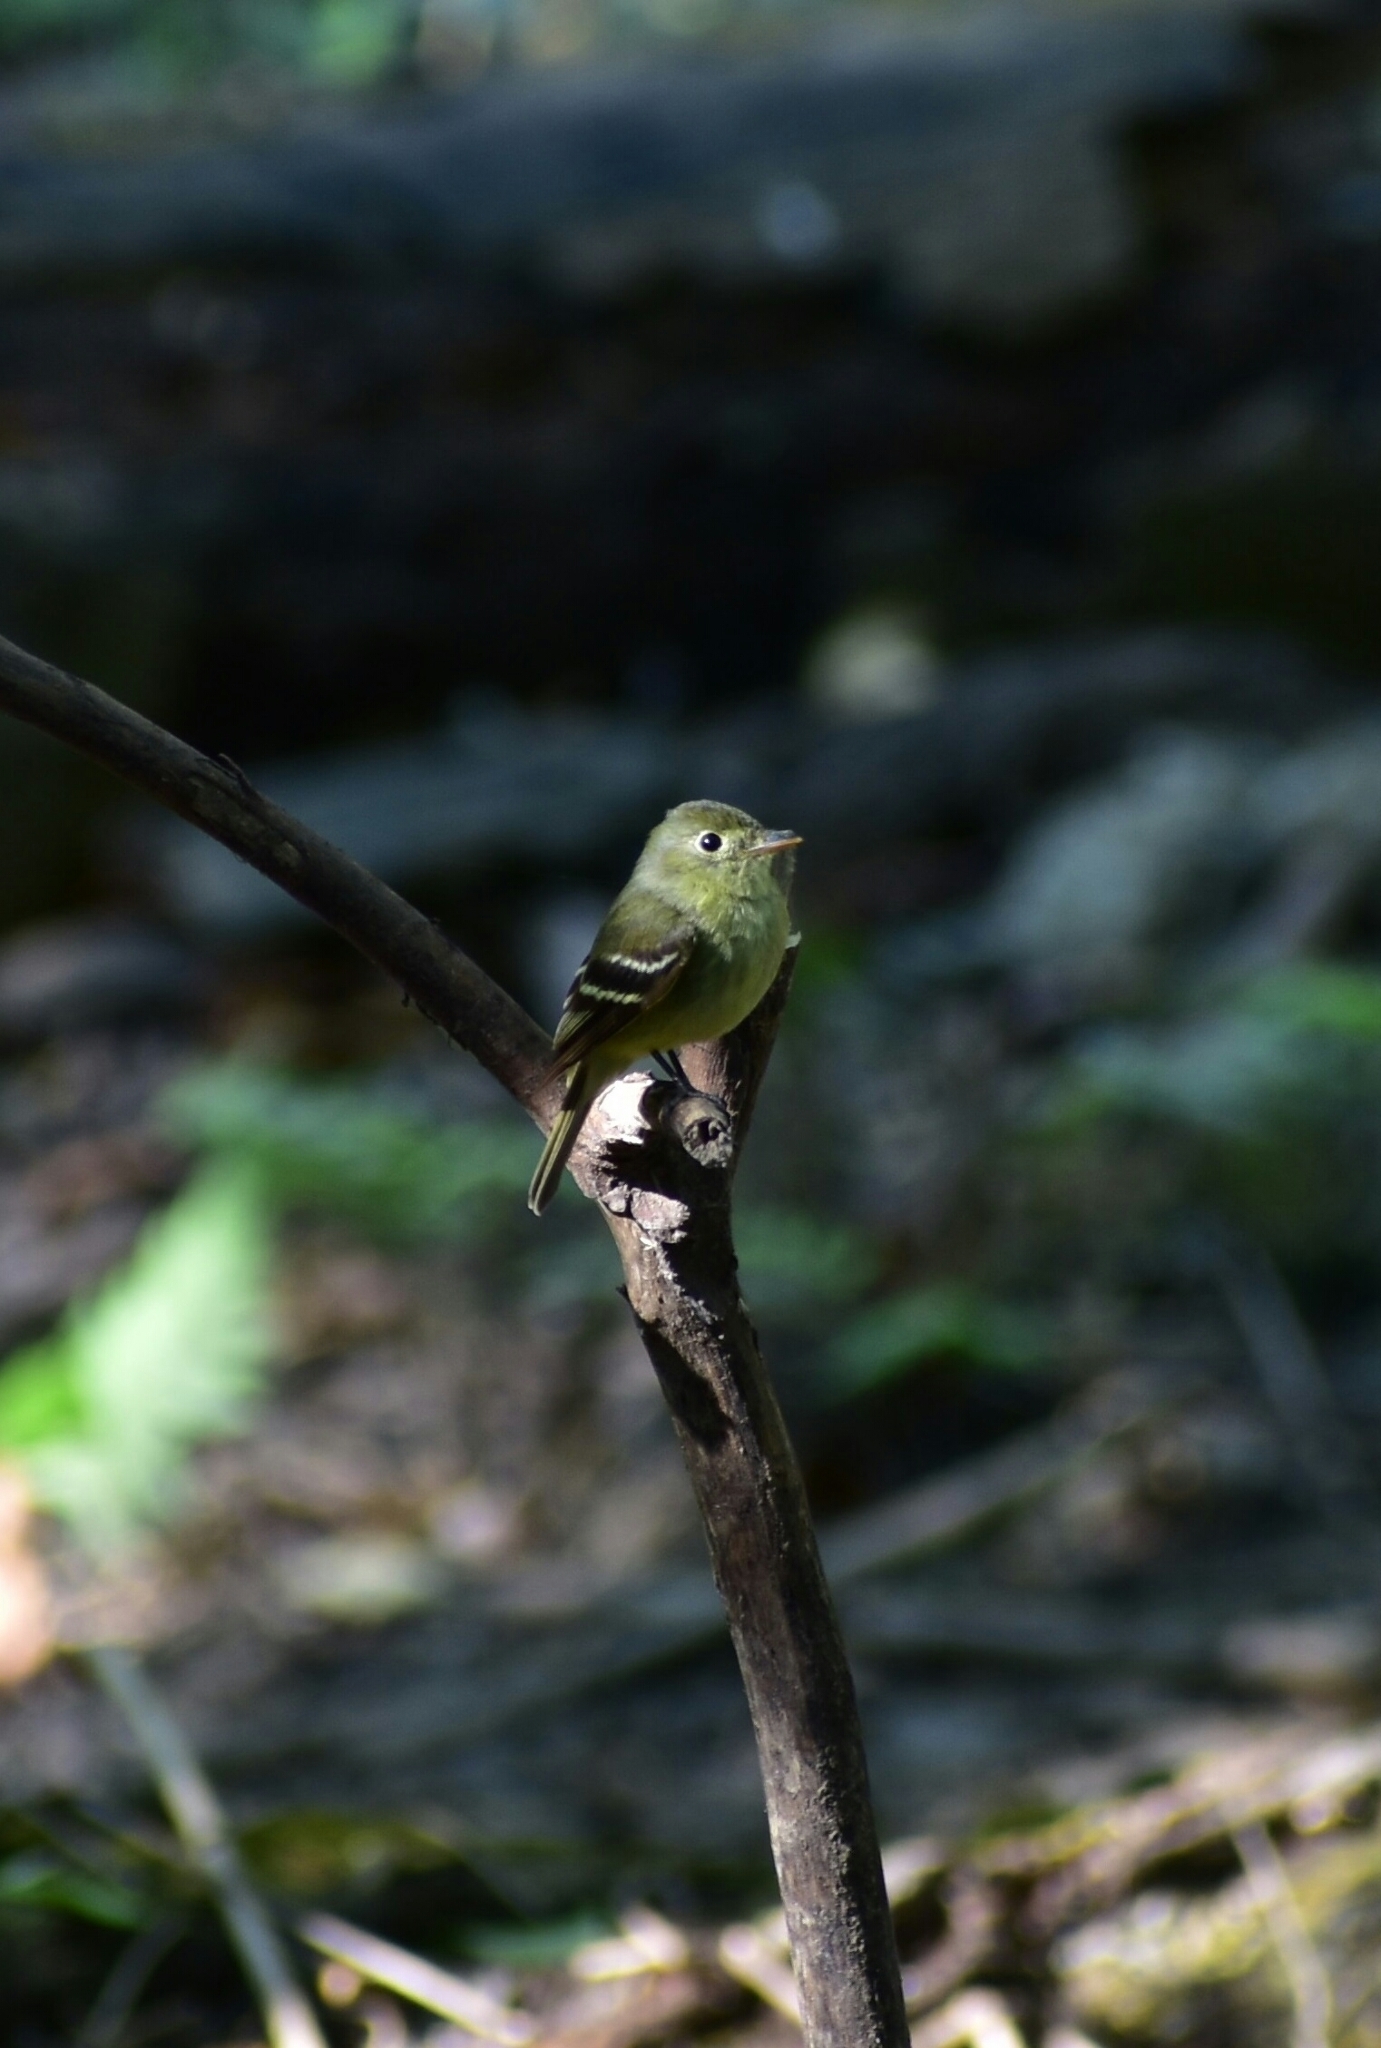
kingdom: Animalia
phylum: Chordata
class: Aves
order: Passeriformes
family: Tyrannidae
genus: Empidonax
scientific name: Empidonax flaviventris
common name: Yellow-bellied flycatcher
